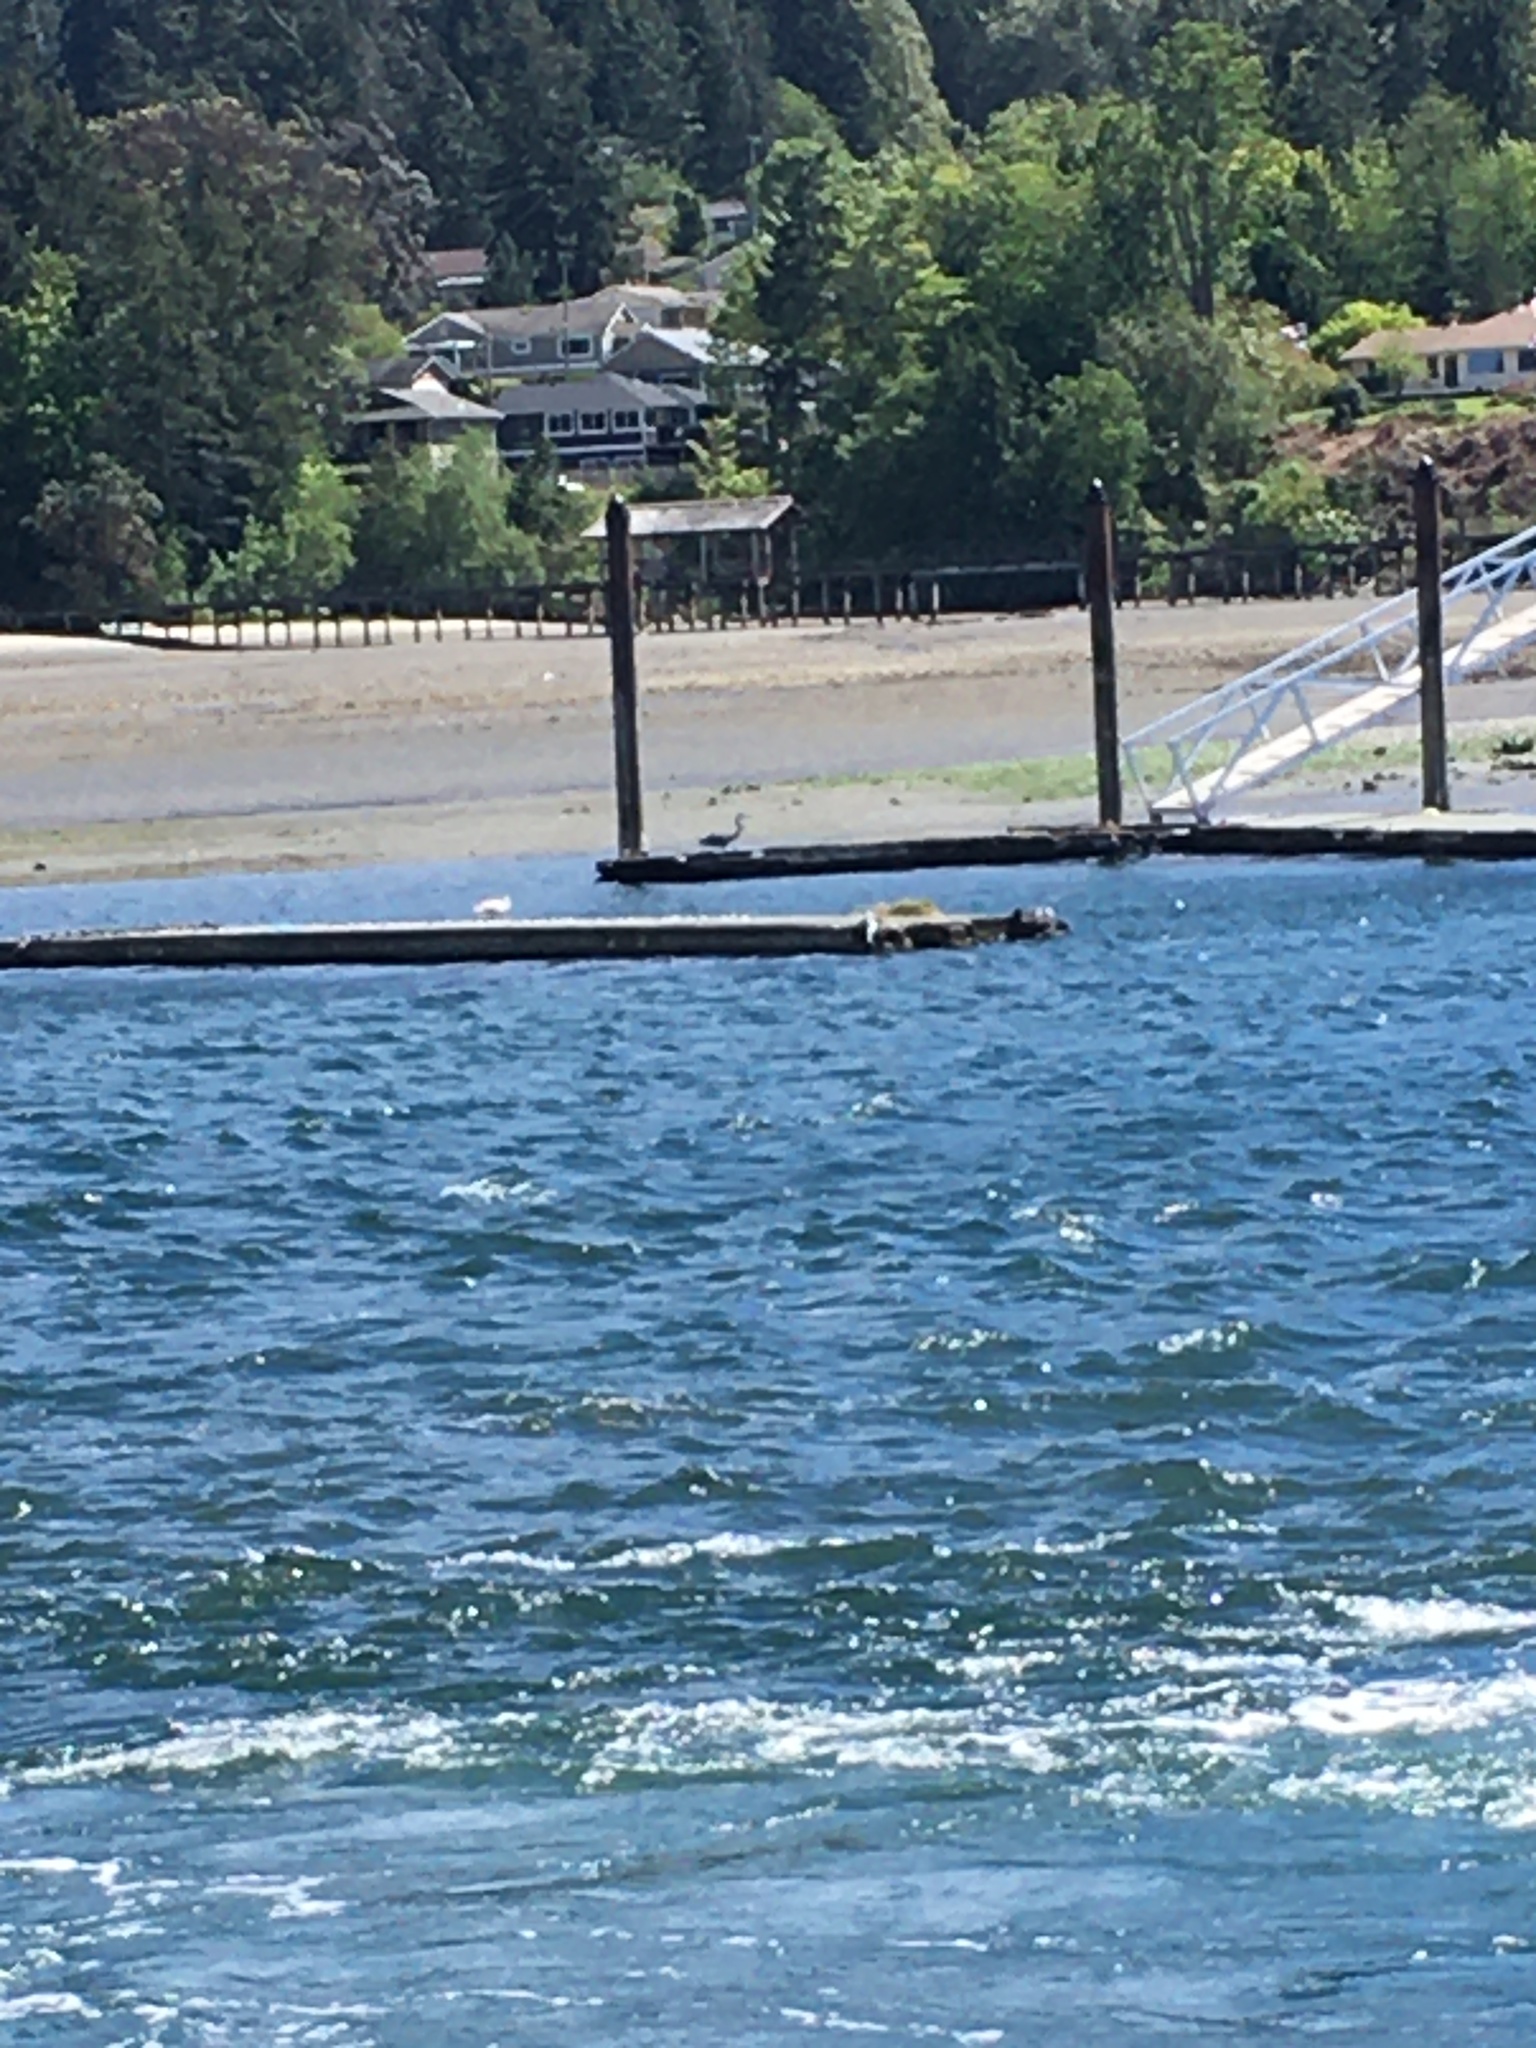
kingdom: Animalia
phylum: Chordata
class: Aves
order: Pelecaniformes
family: Ardeidae
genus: Ardea
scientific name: Ardea herodias
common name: Great blue heron
